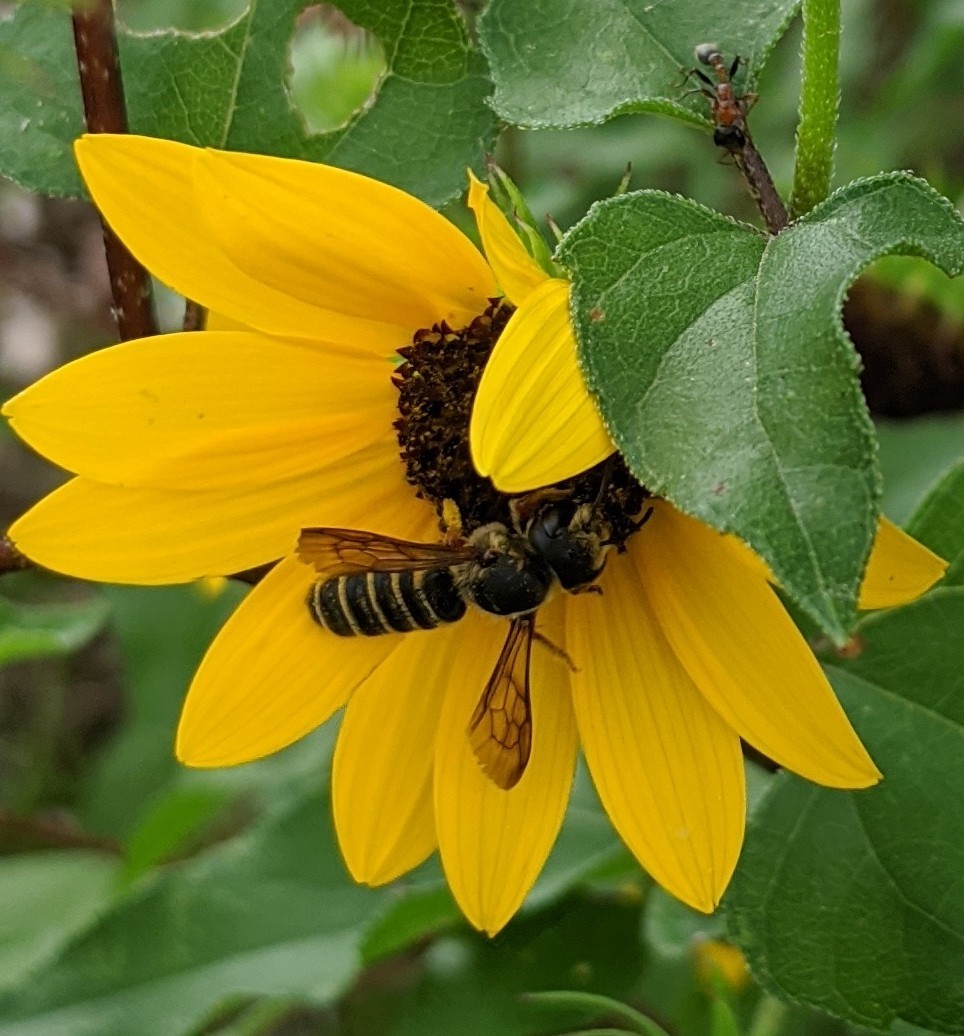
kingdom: Animalia
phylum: Arthropoda
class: Insecta
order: Hymenoptera
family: Megachilidae
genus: Megachile
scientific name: Megachile inimica
